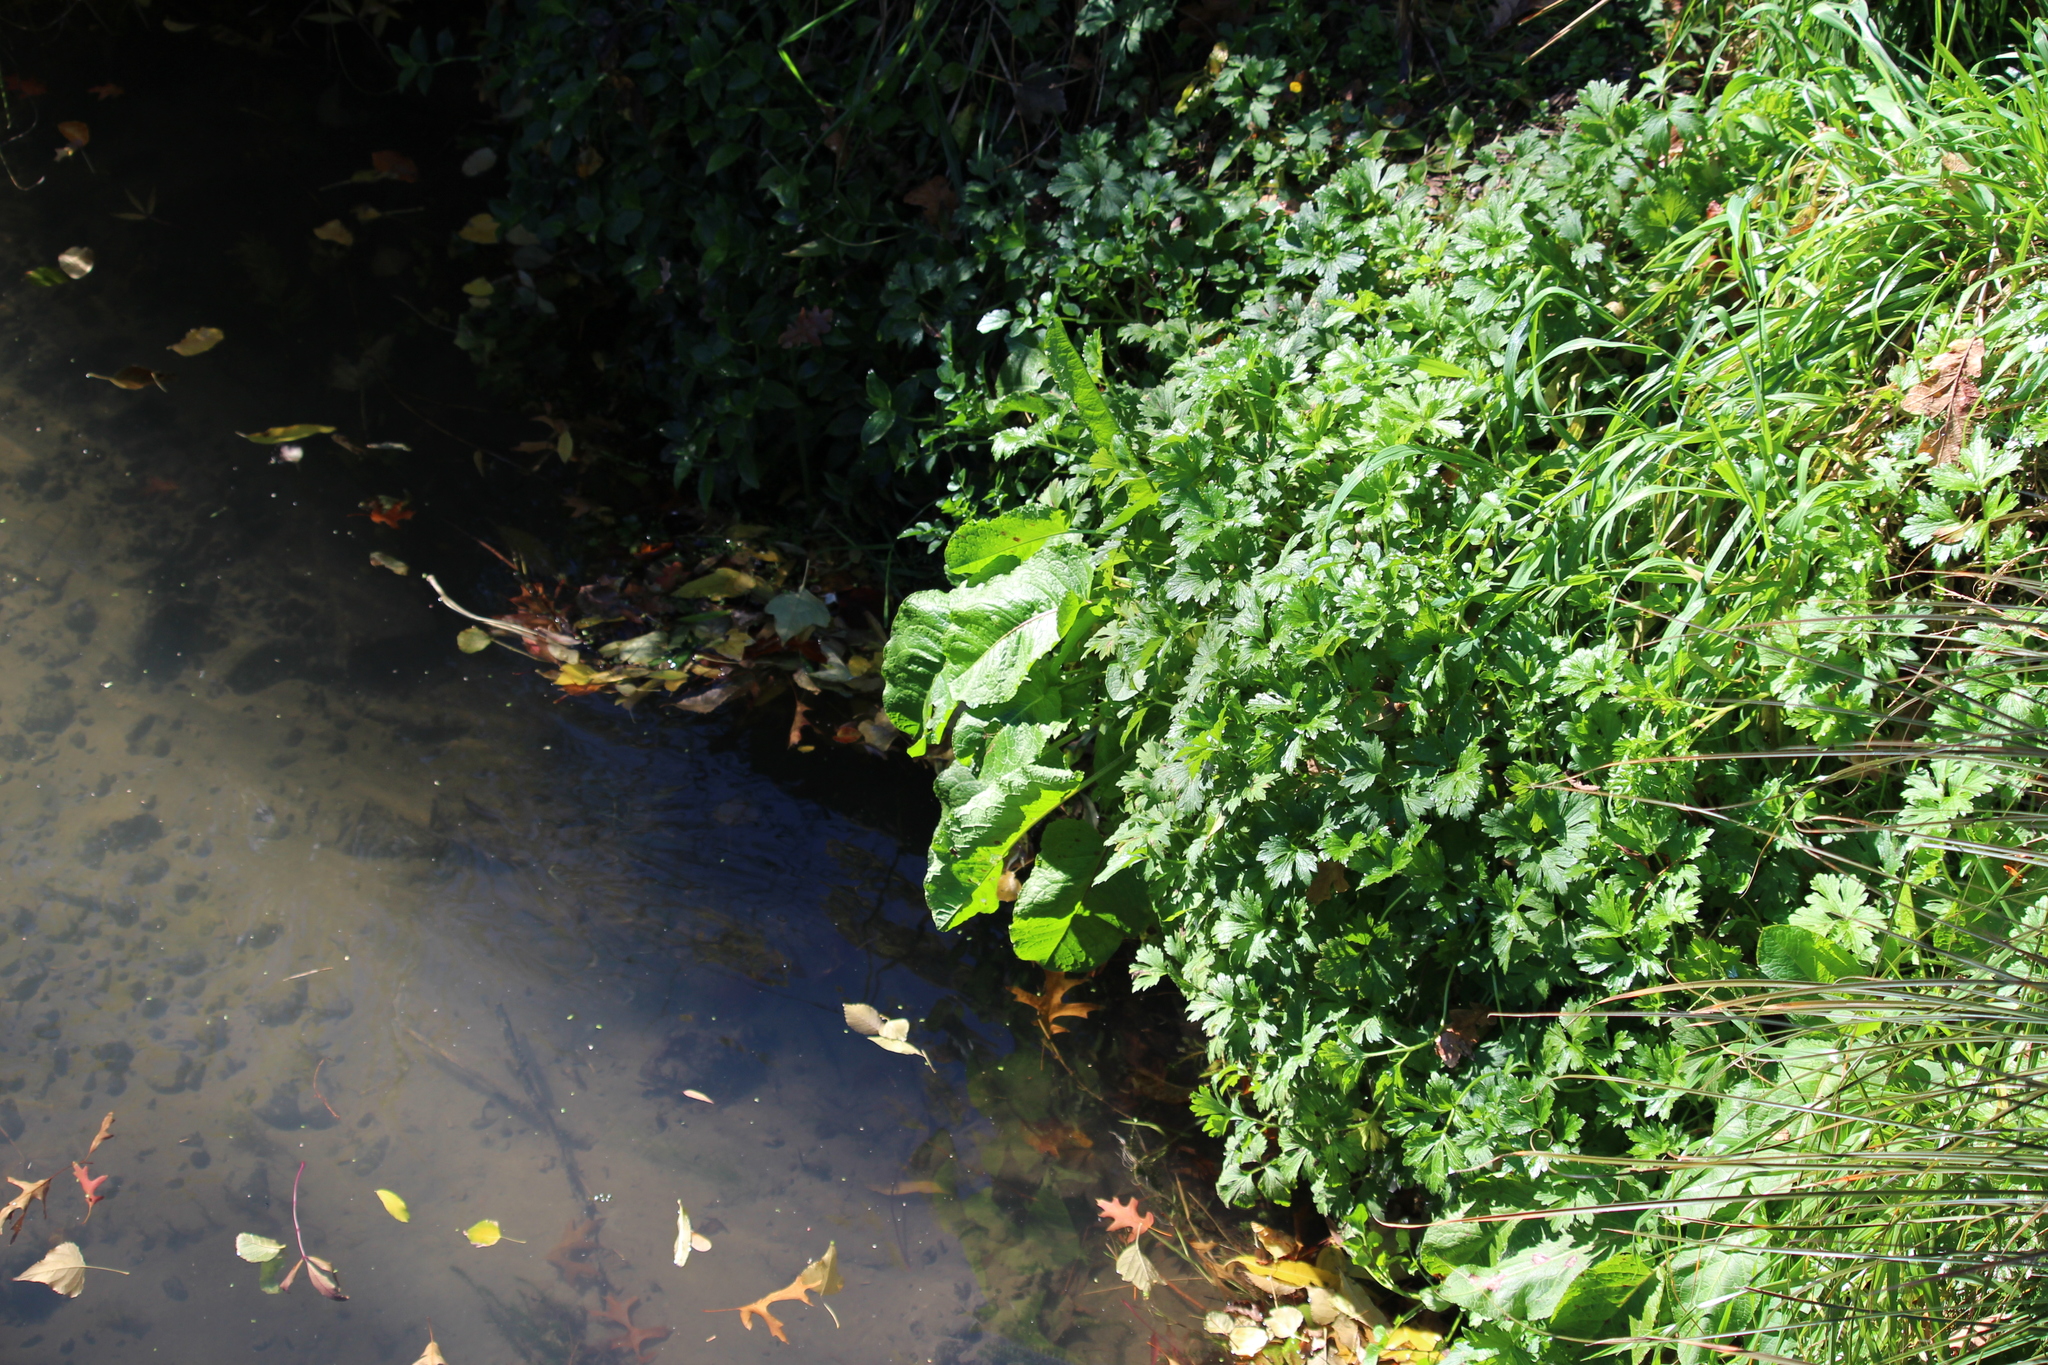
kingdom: Plantae
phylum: Tracheophyta
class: Magnoliopsida
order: Caryophyllales
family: Polygonaceae
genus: Rumex
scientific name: Rumex obtusifolius
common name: Bitter dock
